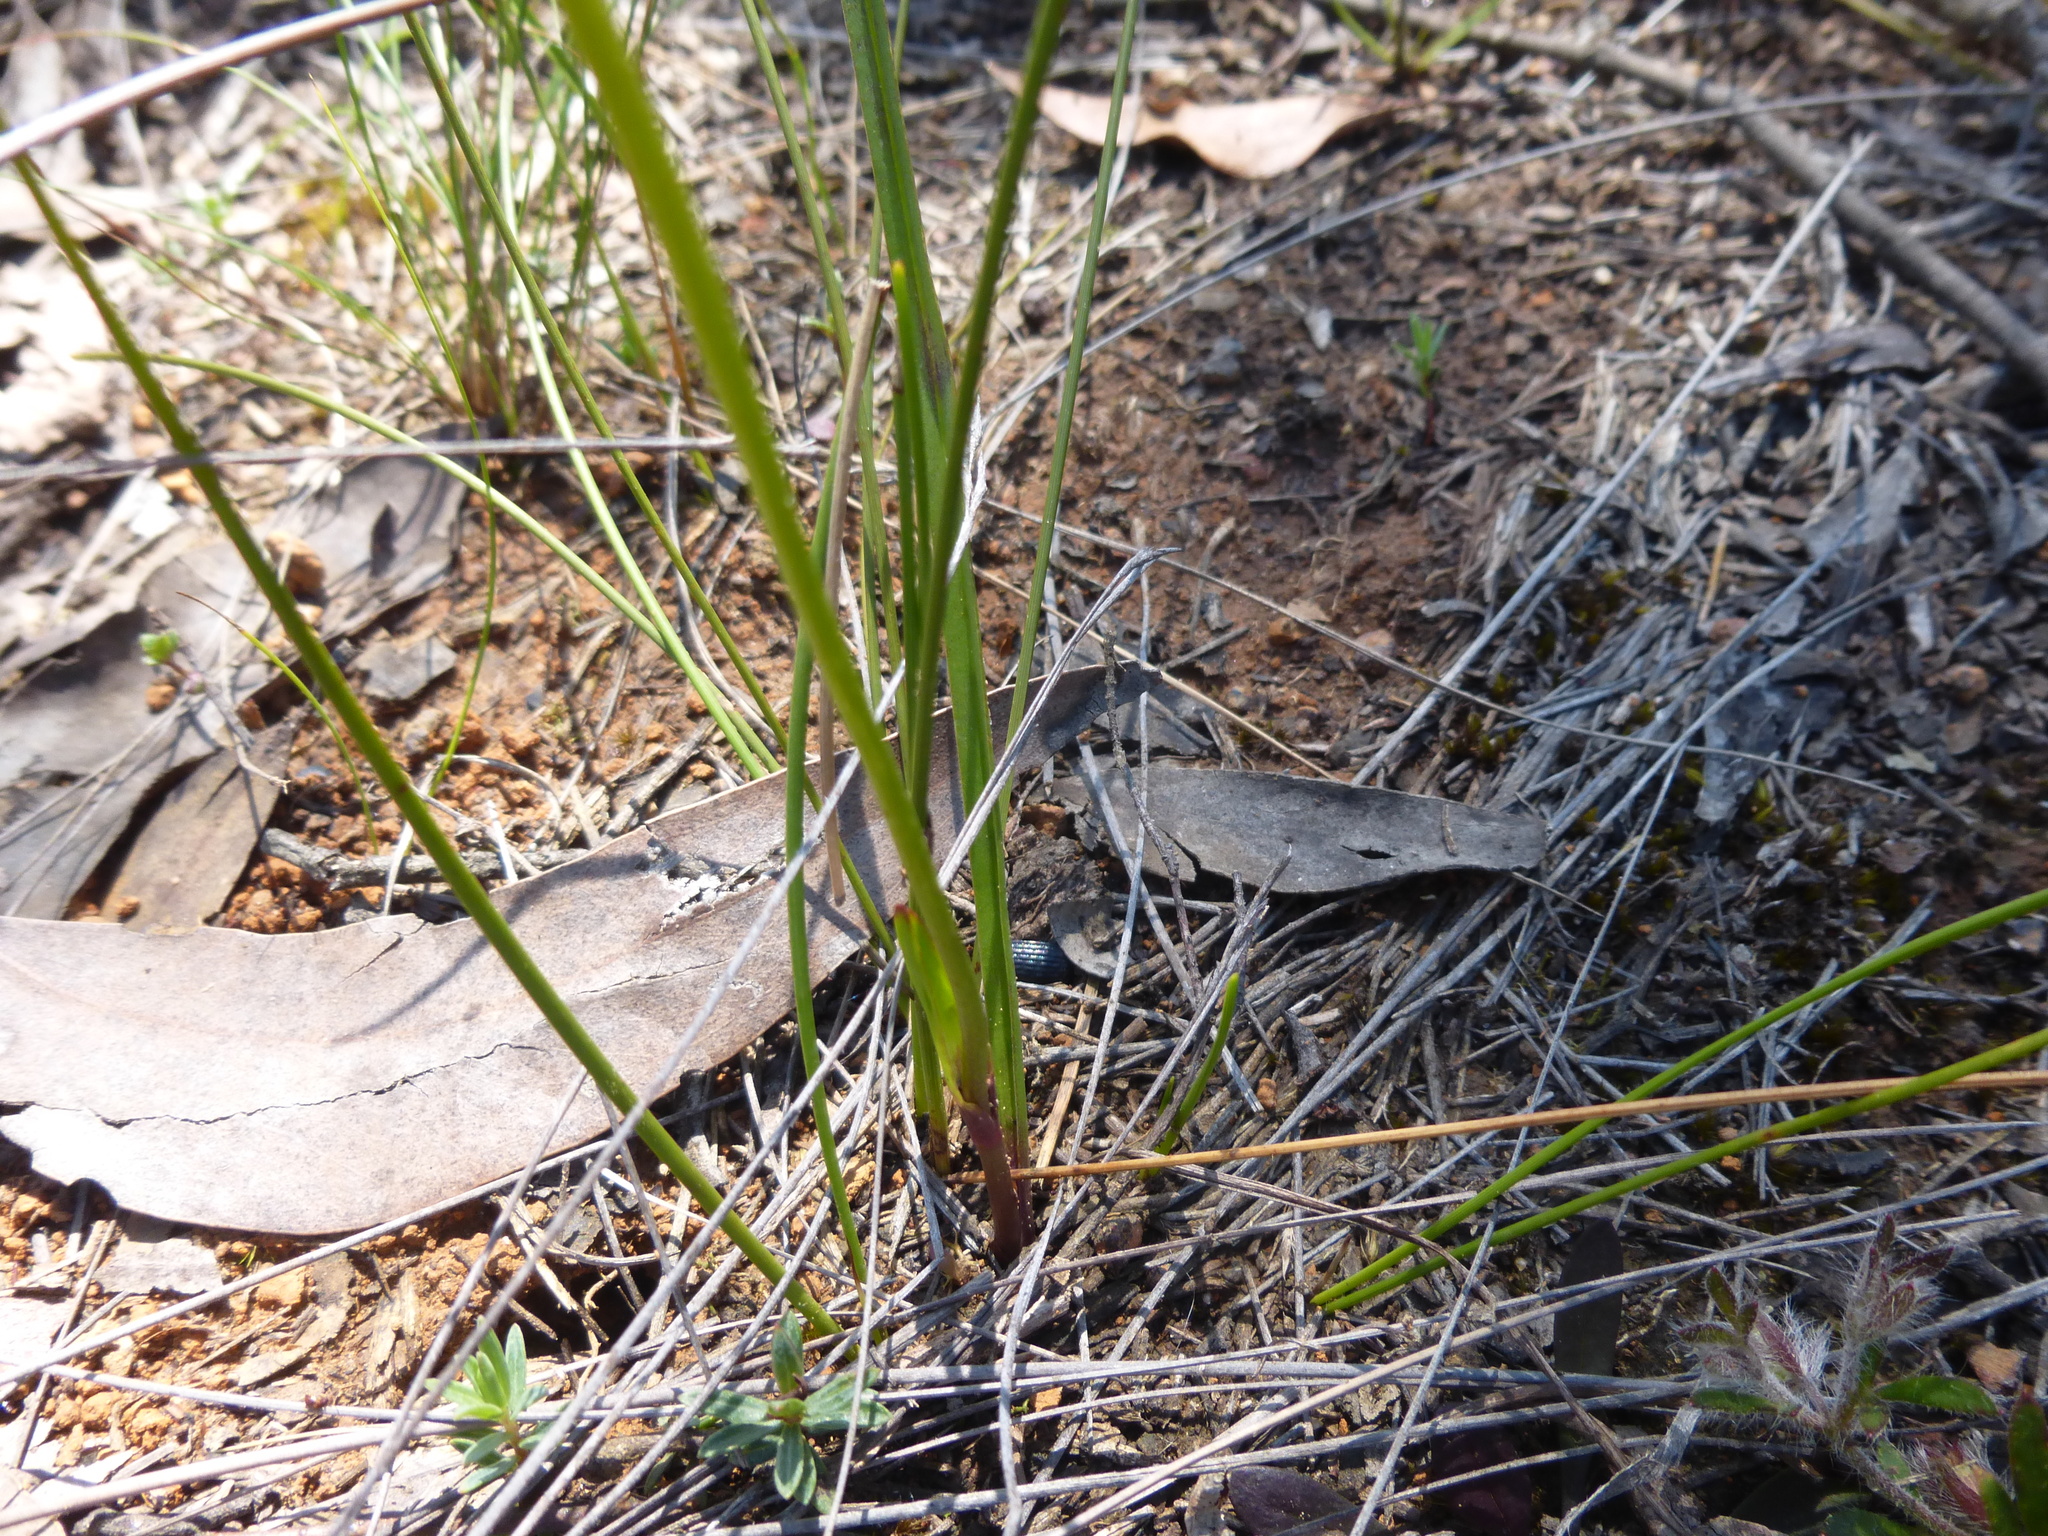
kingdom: Plantae
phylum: Tracheophyta
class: Liliopsida
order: Liliales
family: Colchicaceae
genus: Burchardia
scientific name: Burchardia umbellata
